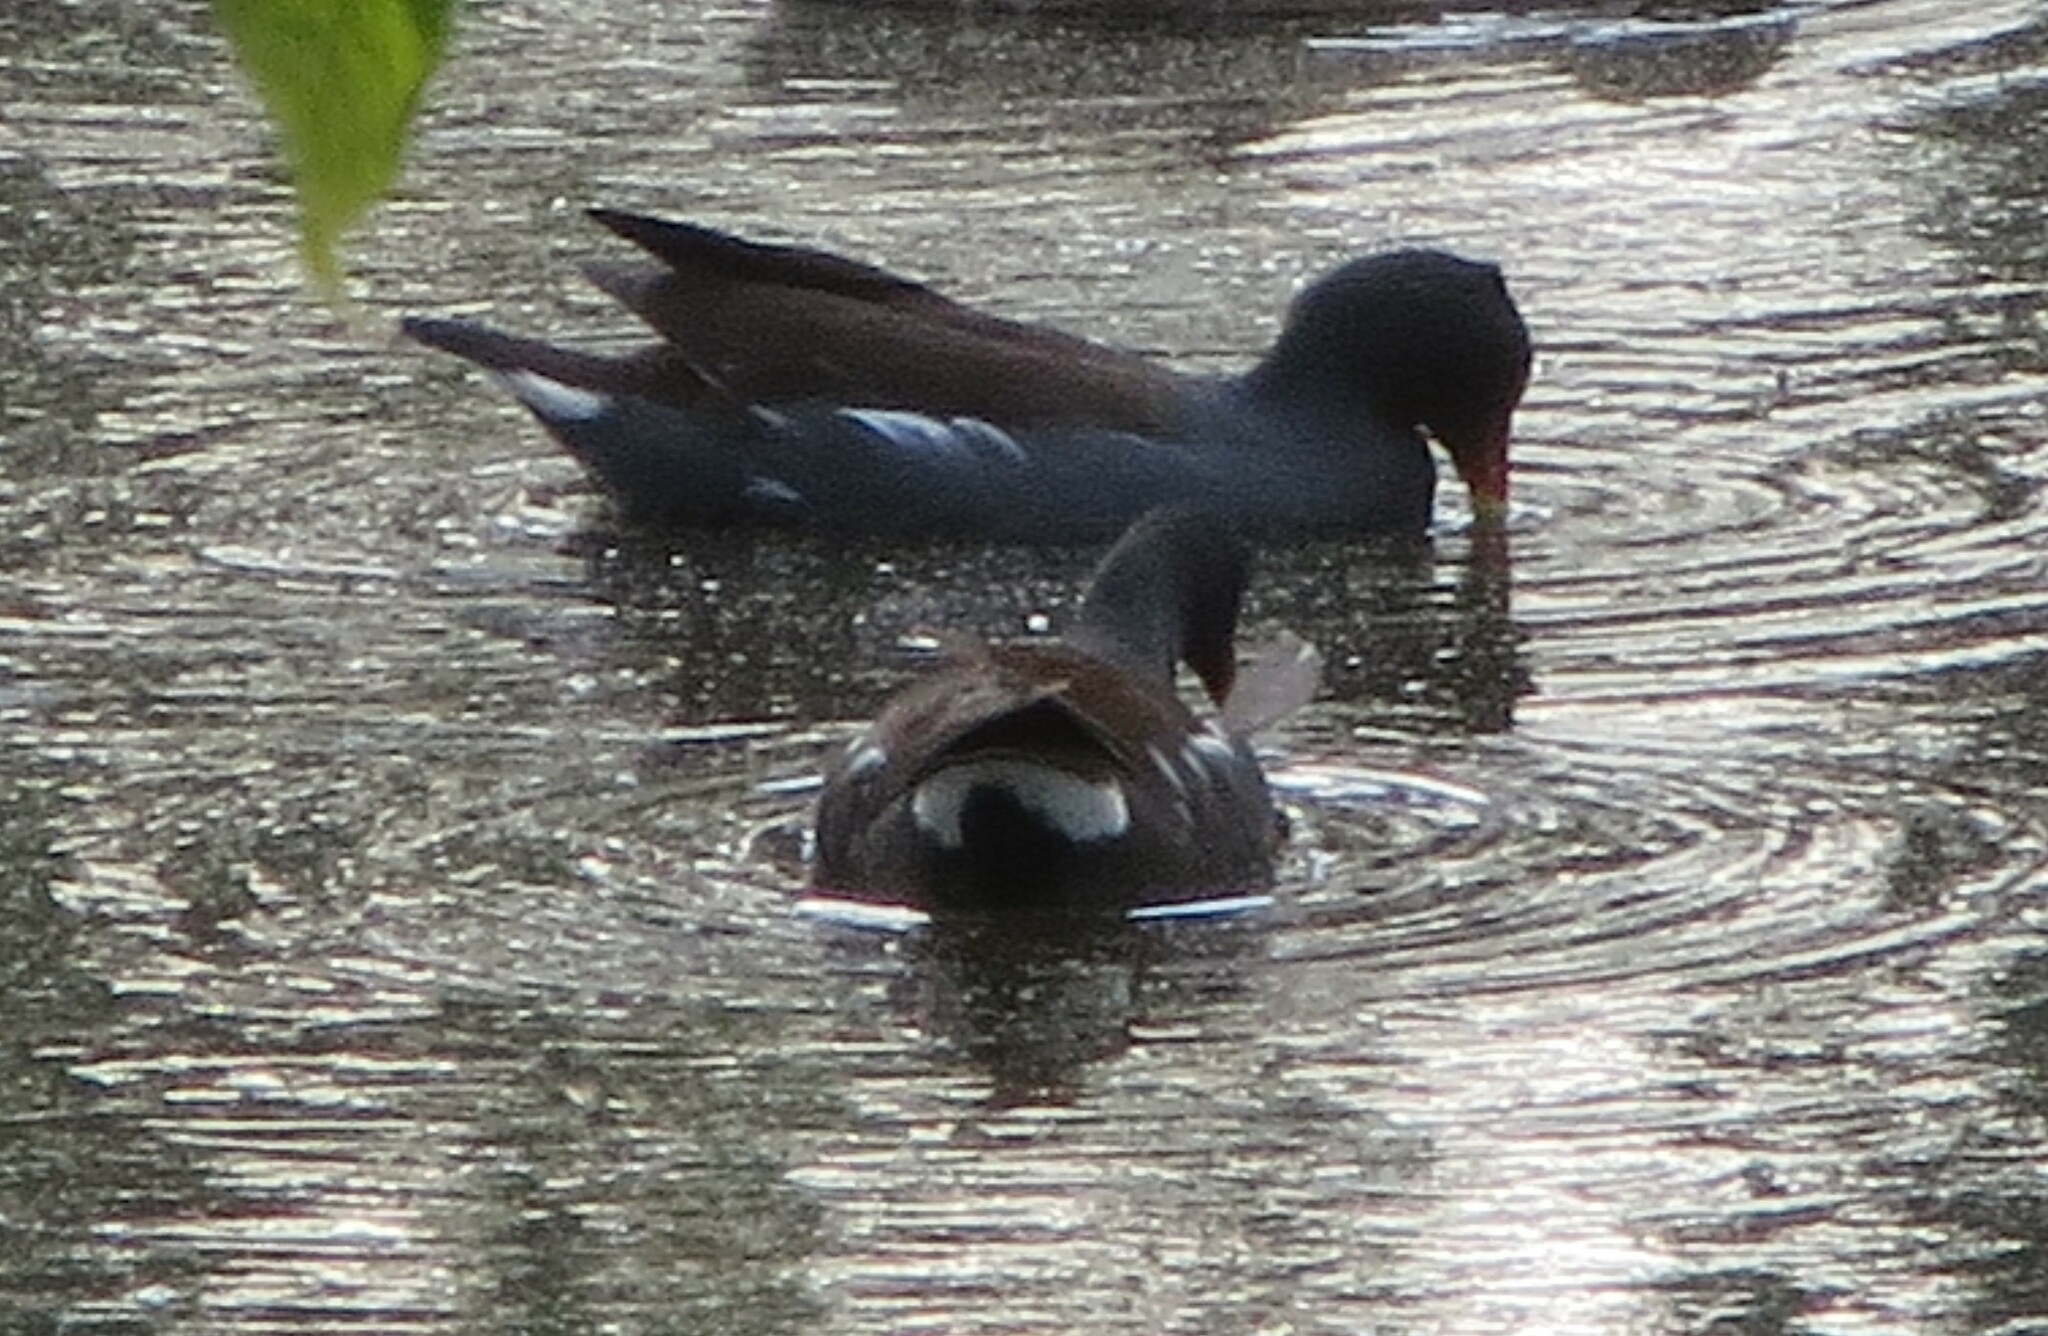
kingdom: Animalia
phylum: Chordata
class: Aves
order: Gruiformes
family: Rallidae
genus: Gallinula
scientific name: Gallinula chloropus
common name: Common moorhen
